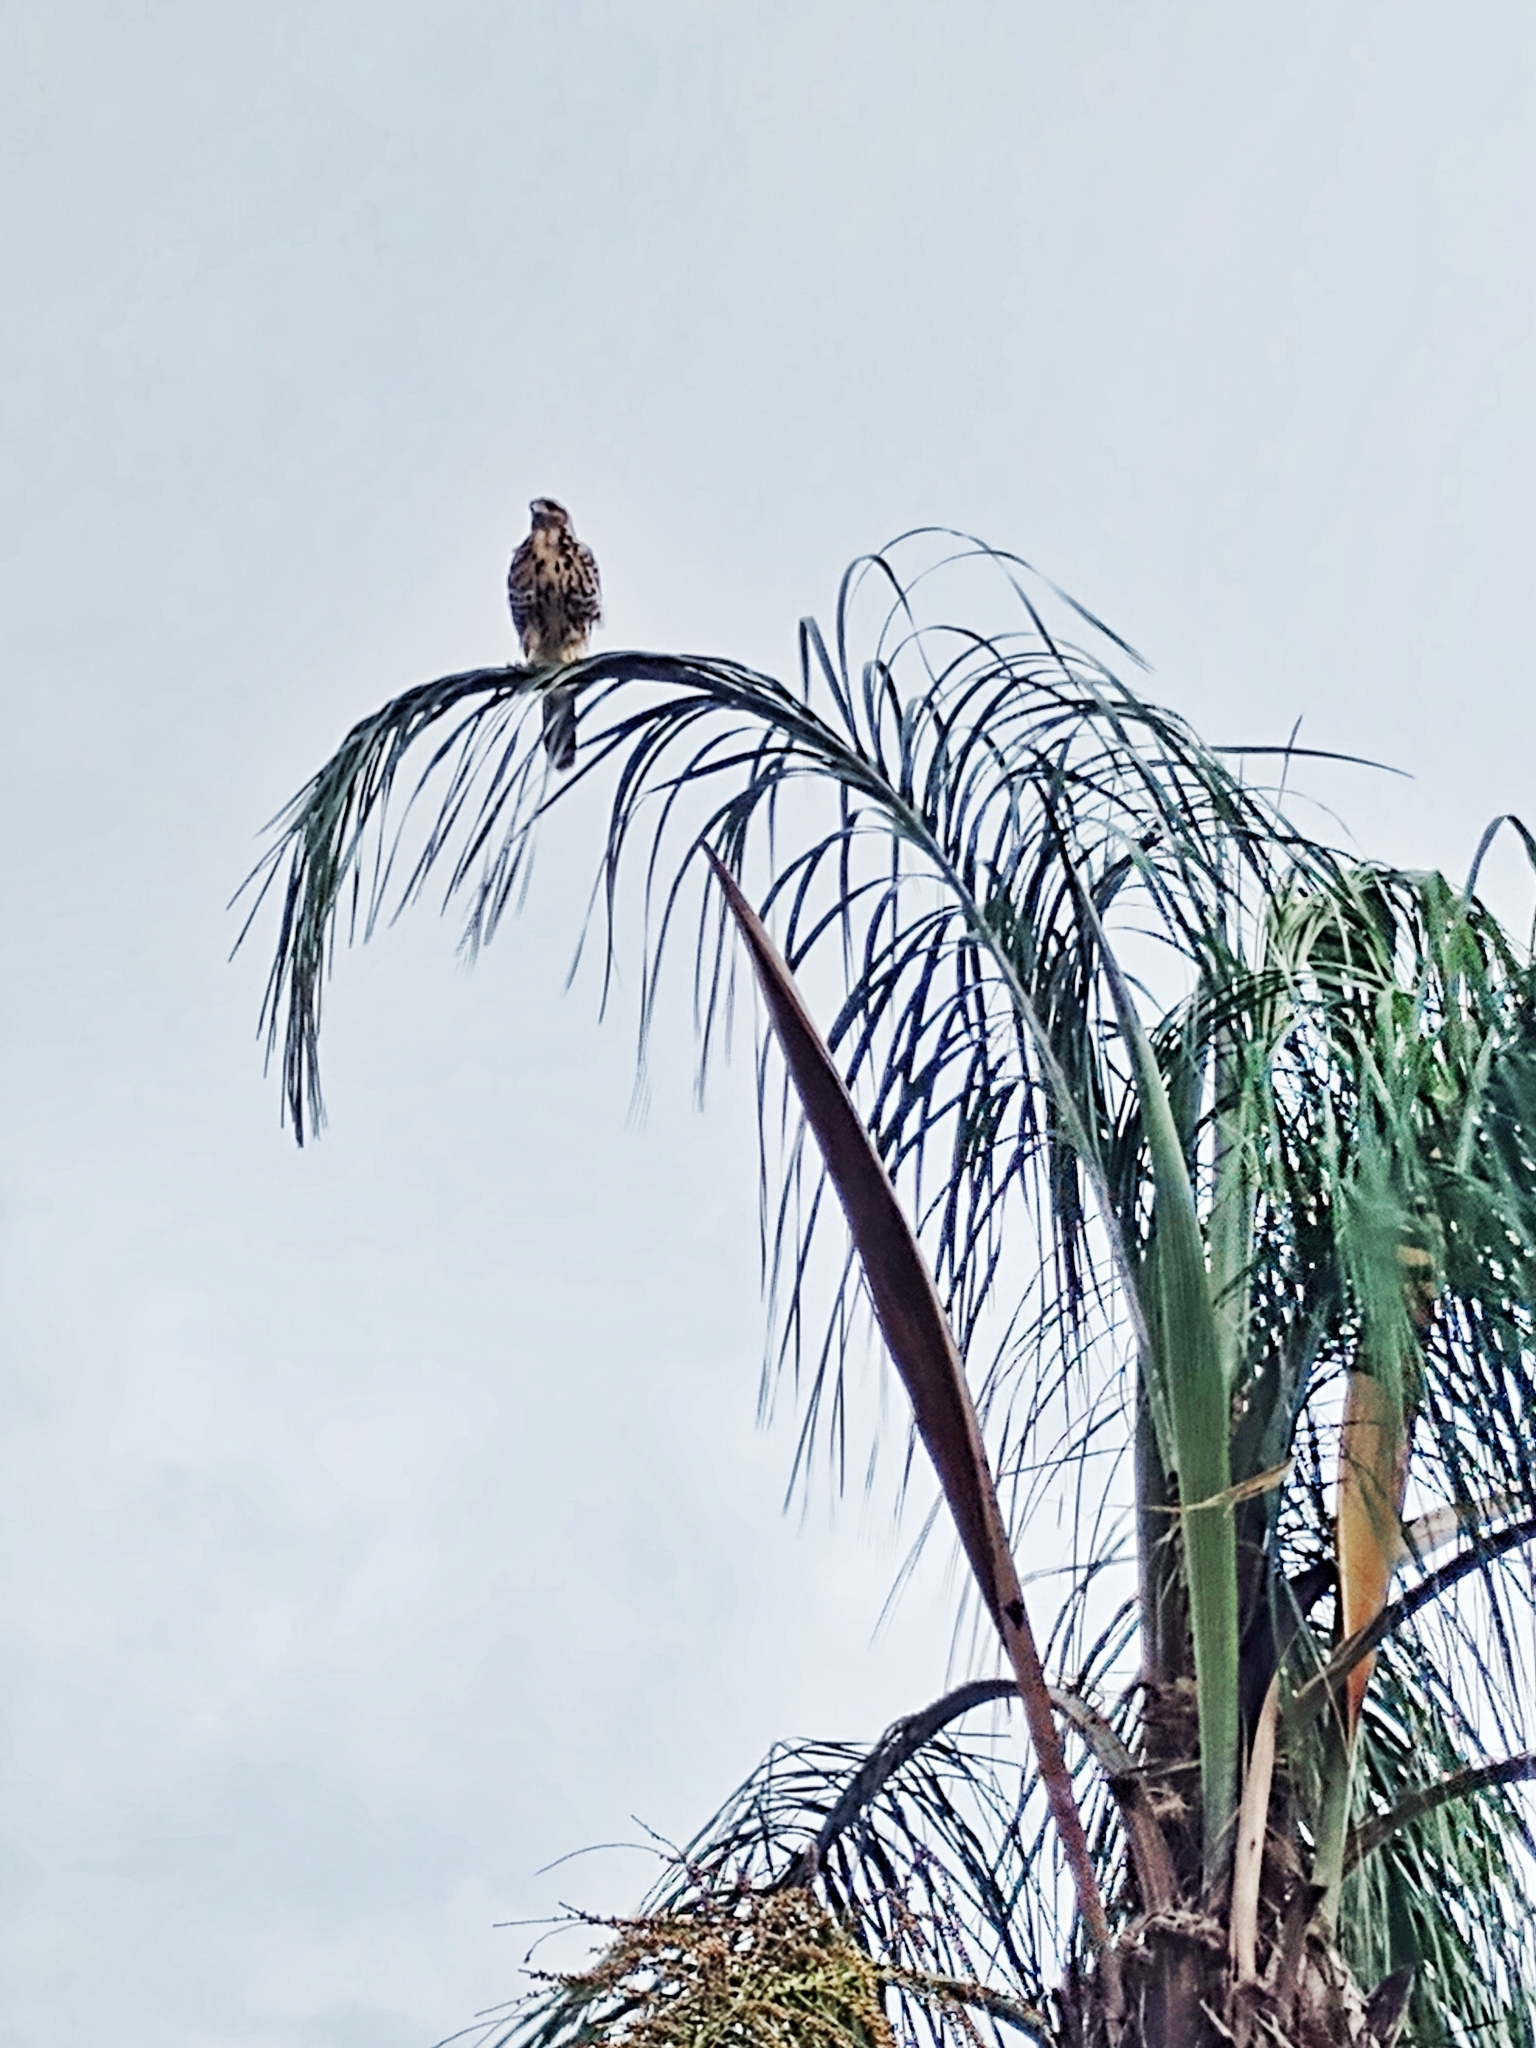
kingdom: Animalia
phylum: Chordata
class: Aves
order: Accipitriformes
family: Accipitridae
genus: Parabuteo
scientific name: Parabuteo unicinctus
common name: Harris's hawk
